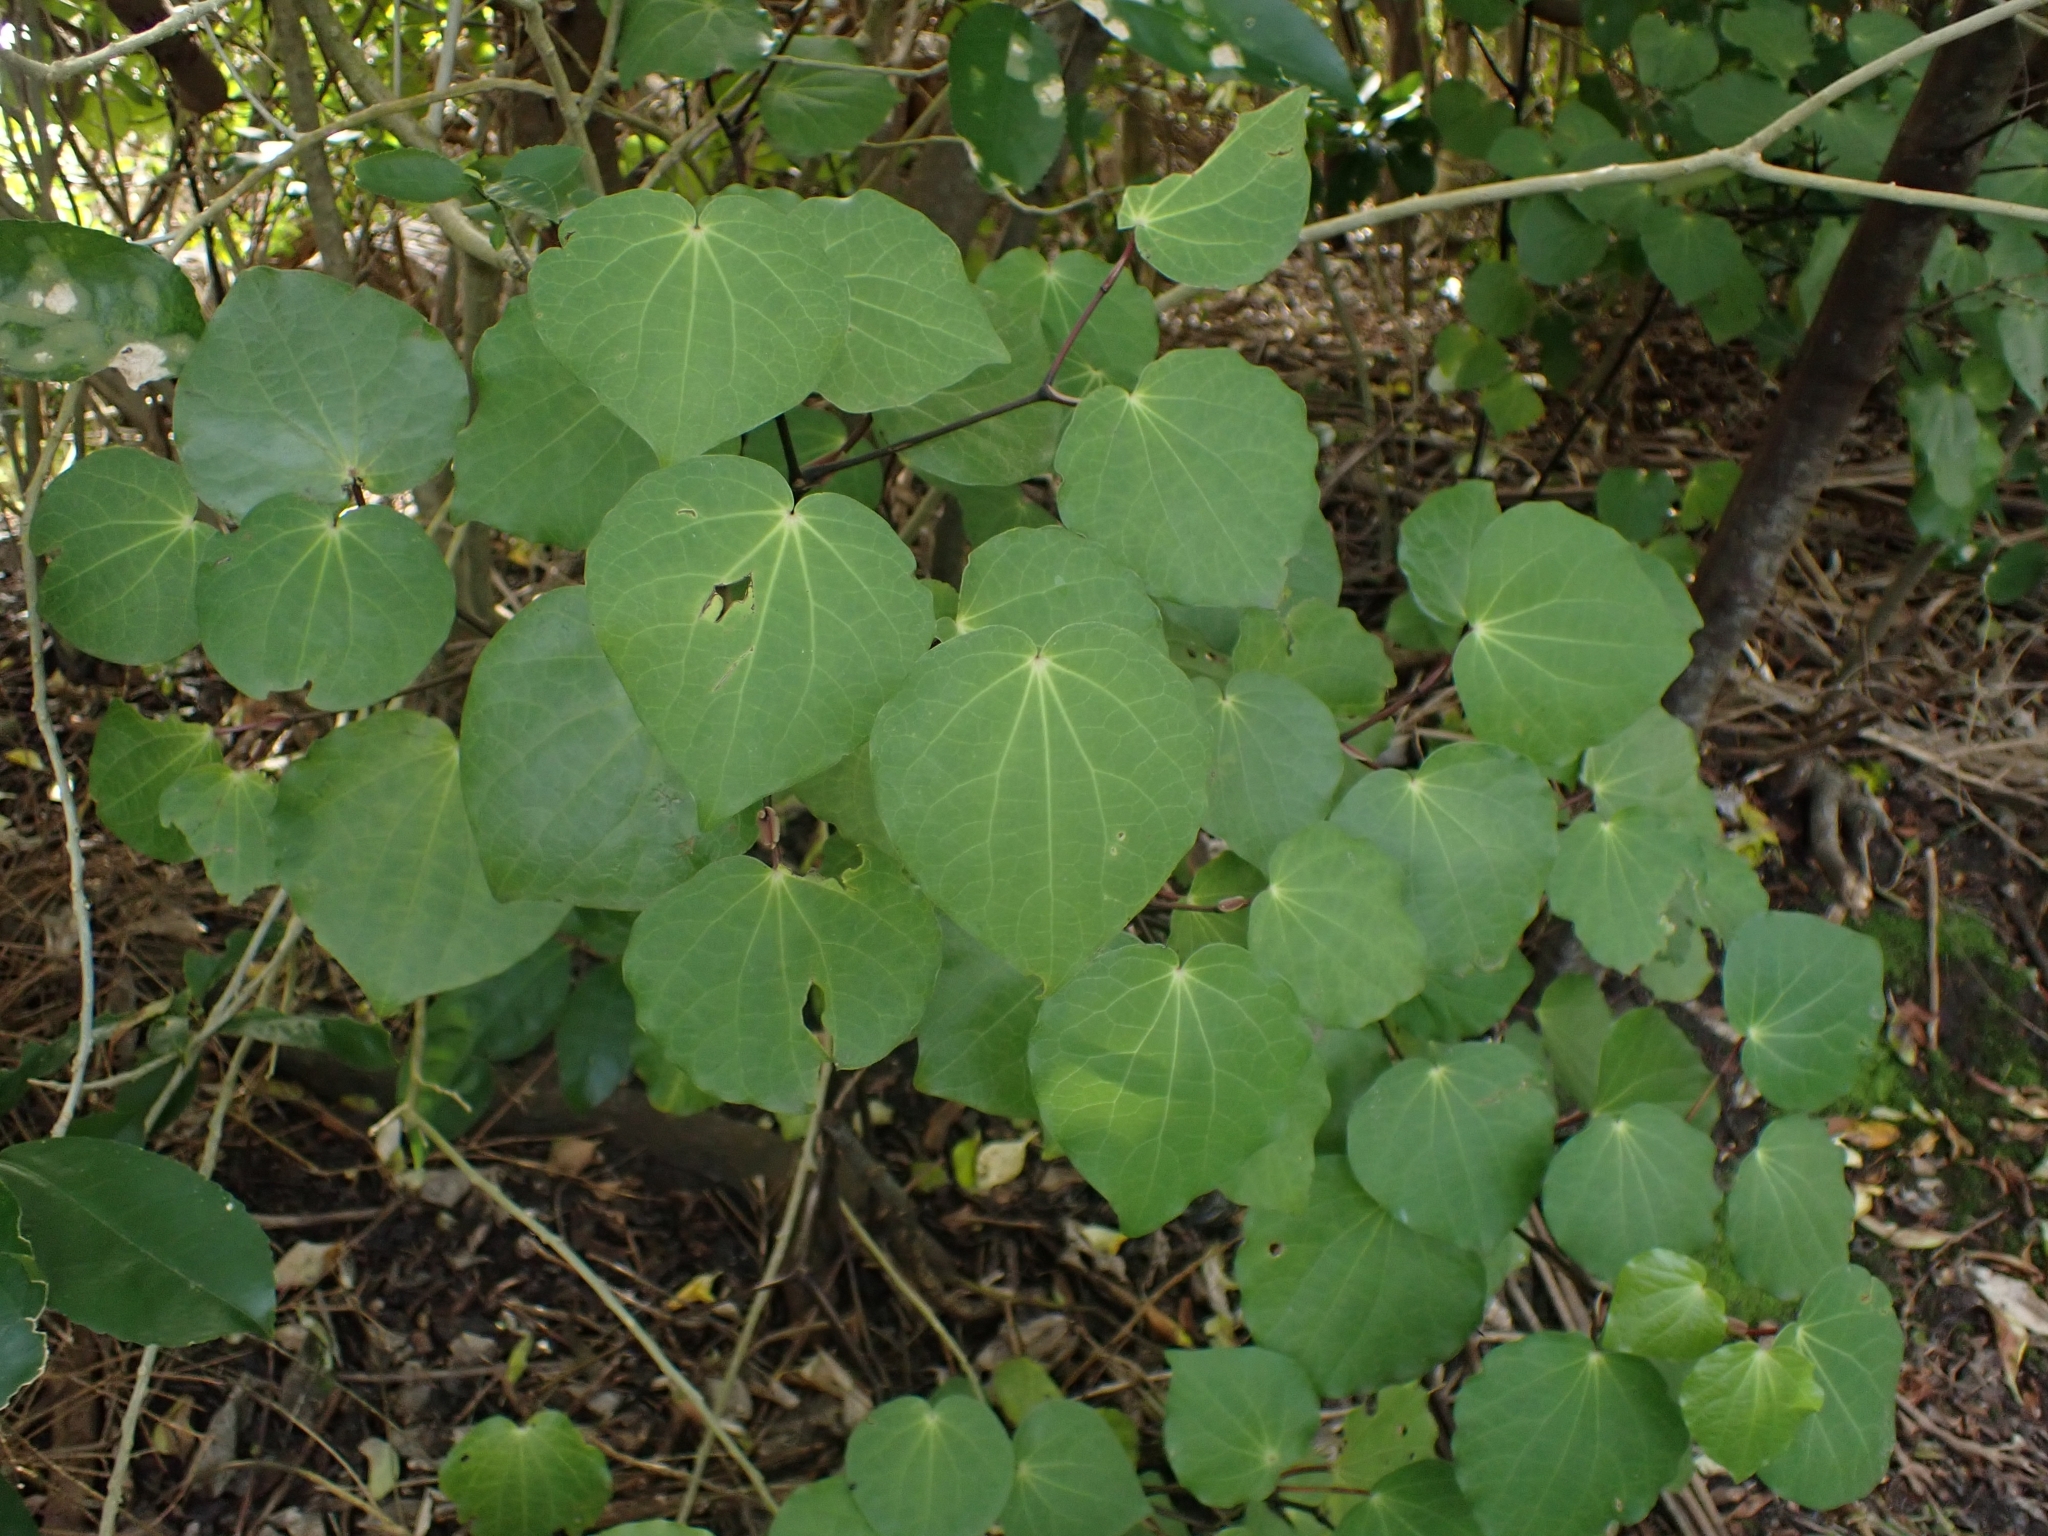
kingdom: Plantae
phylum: Tracheophyta
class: Magnoliopsida
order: Piperales
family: Piperaceae
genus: Macropiper
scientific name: Macropiper excelsum
